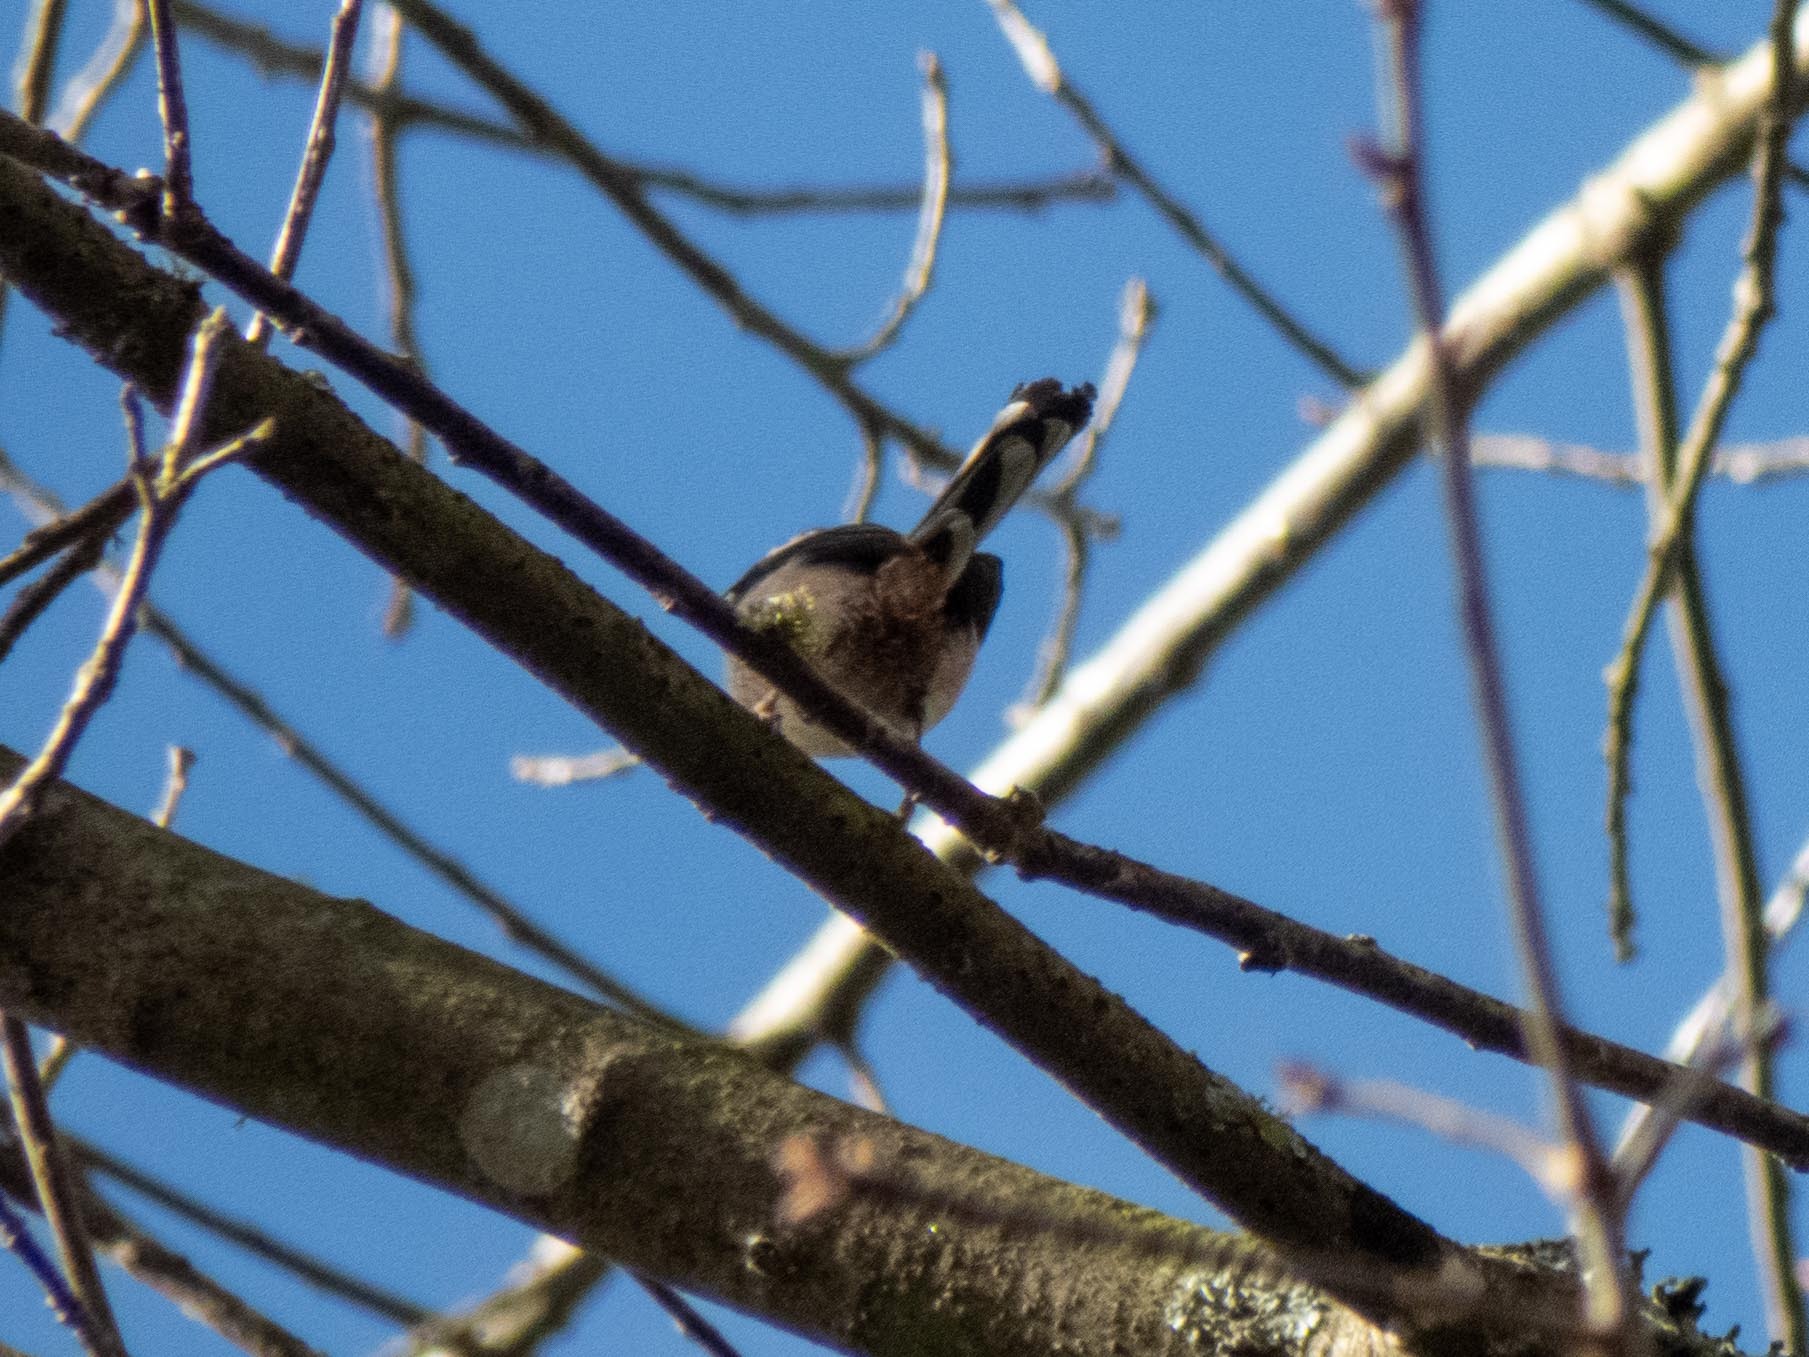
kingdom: Animalia
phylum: Chordata
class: Aves
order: Passeriformes
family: Aegithalidae
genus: Aegithalos
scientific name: Aegithalos caudatus
